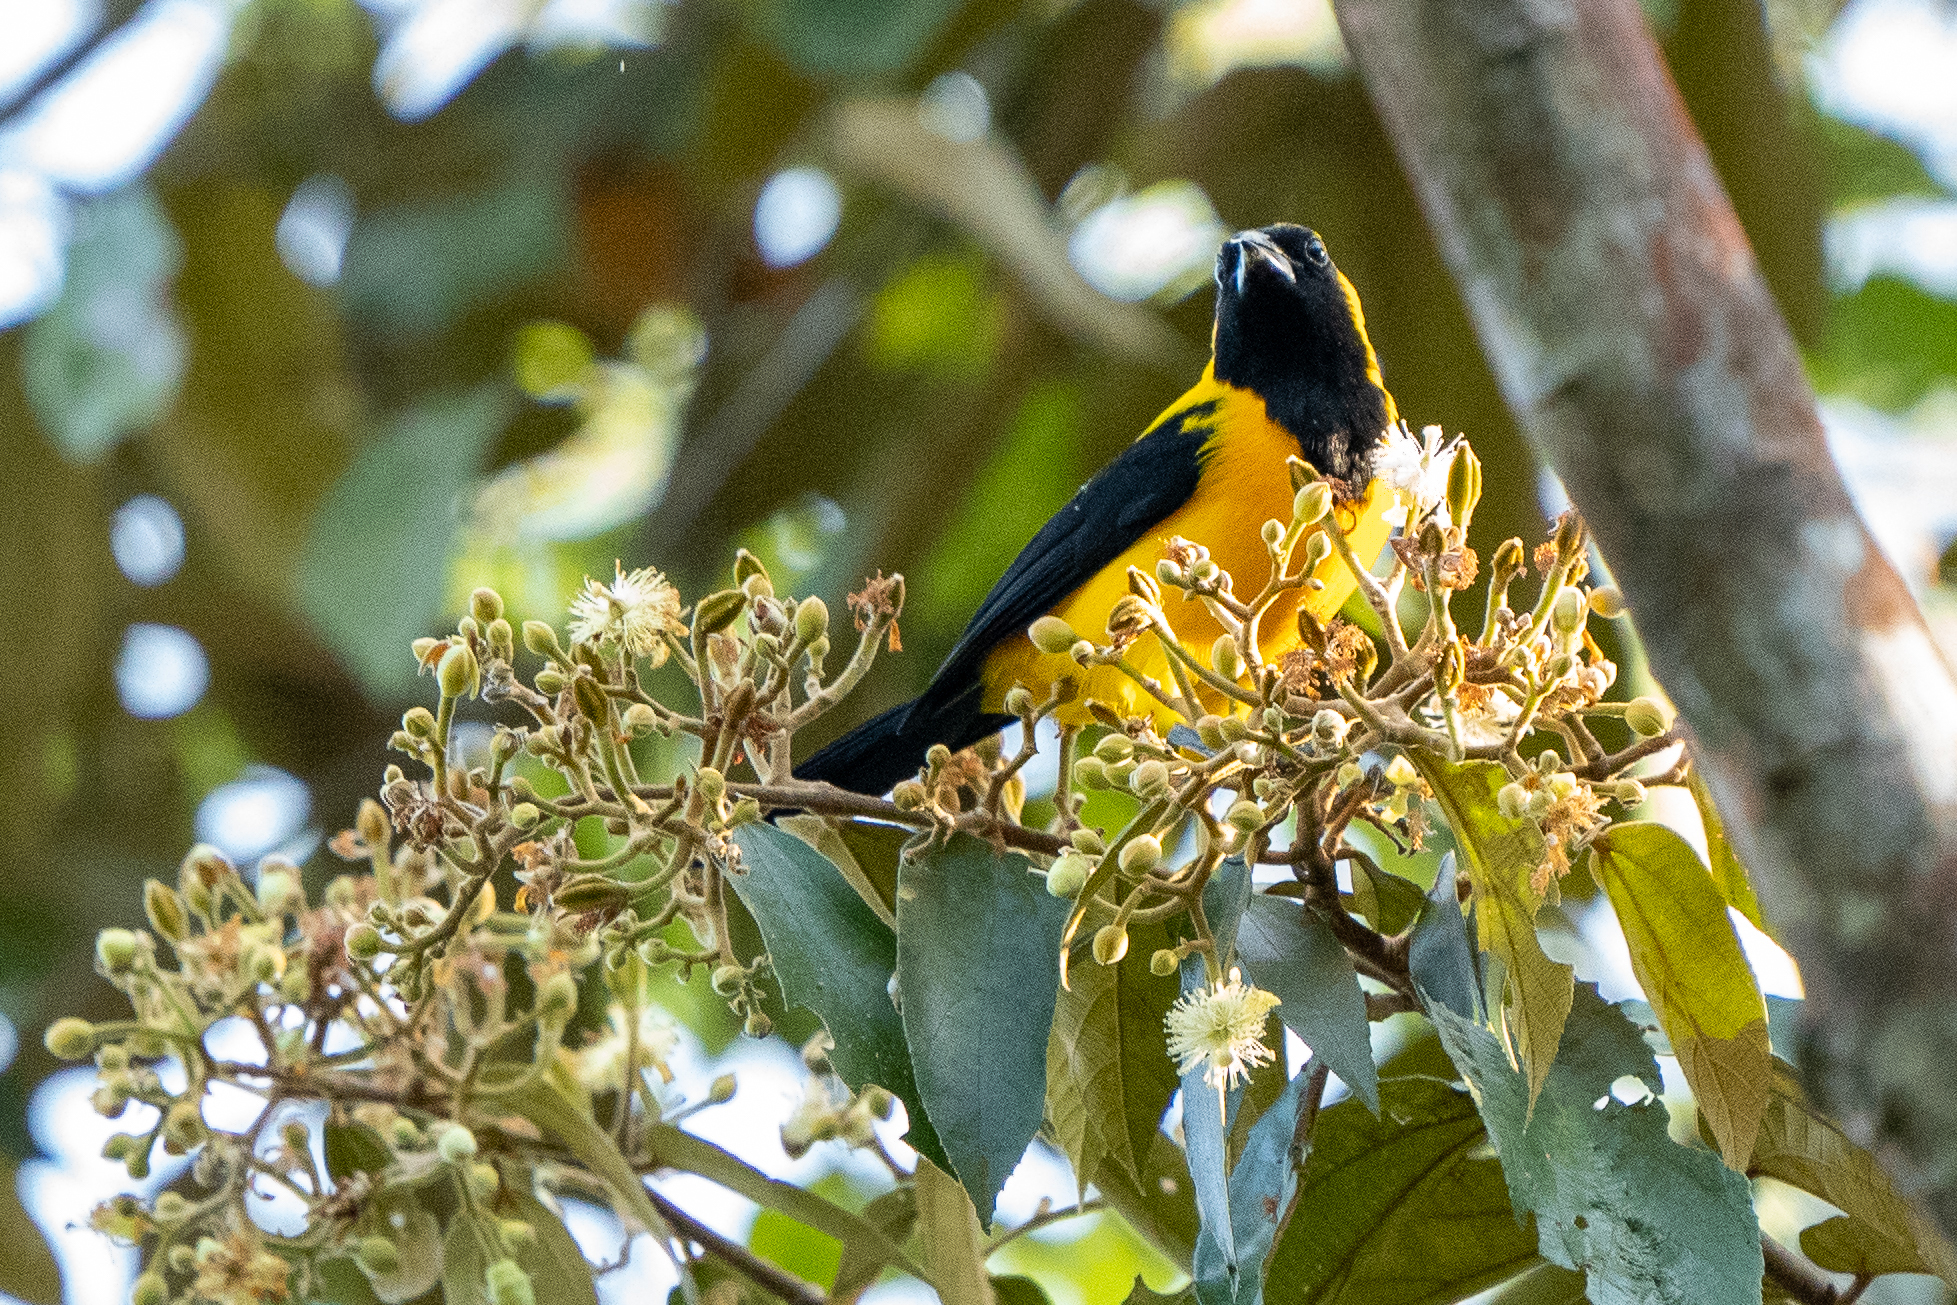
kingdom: Animalia
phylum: Chordata
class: Aves
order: Passeriformes
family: Icteridae
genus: Icterus
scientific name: Icterus chrysater
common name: Yellow-backed oriole
